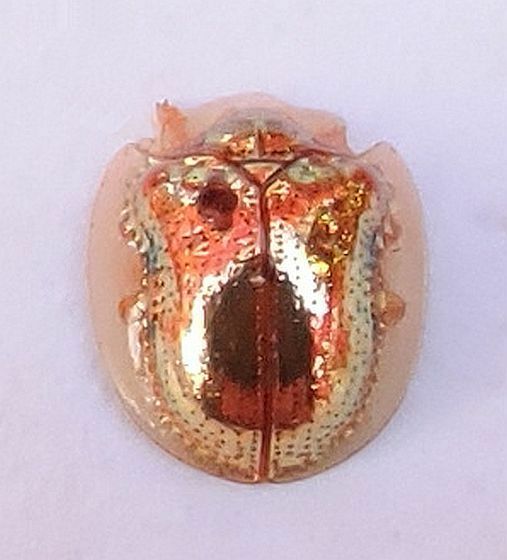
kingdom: Animalia
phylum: Arthropoda
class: Insecta
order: Coleoptera
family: Chrysomelidae
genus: Charidotella
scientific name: Charidotella sexpunctata
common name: Golden tortoise beetle
